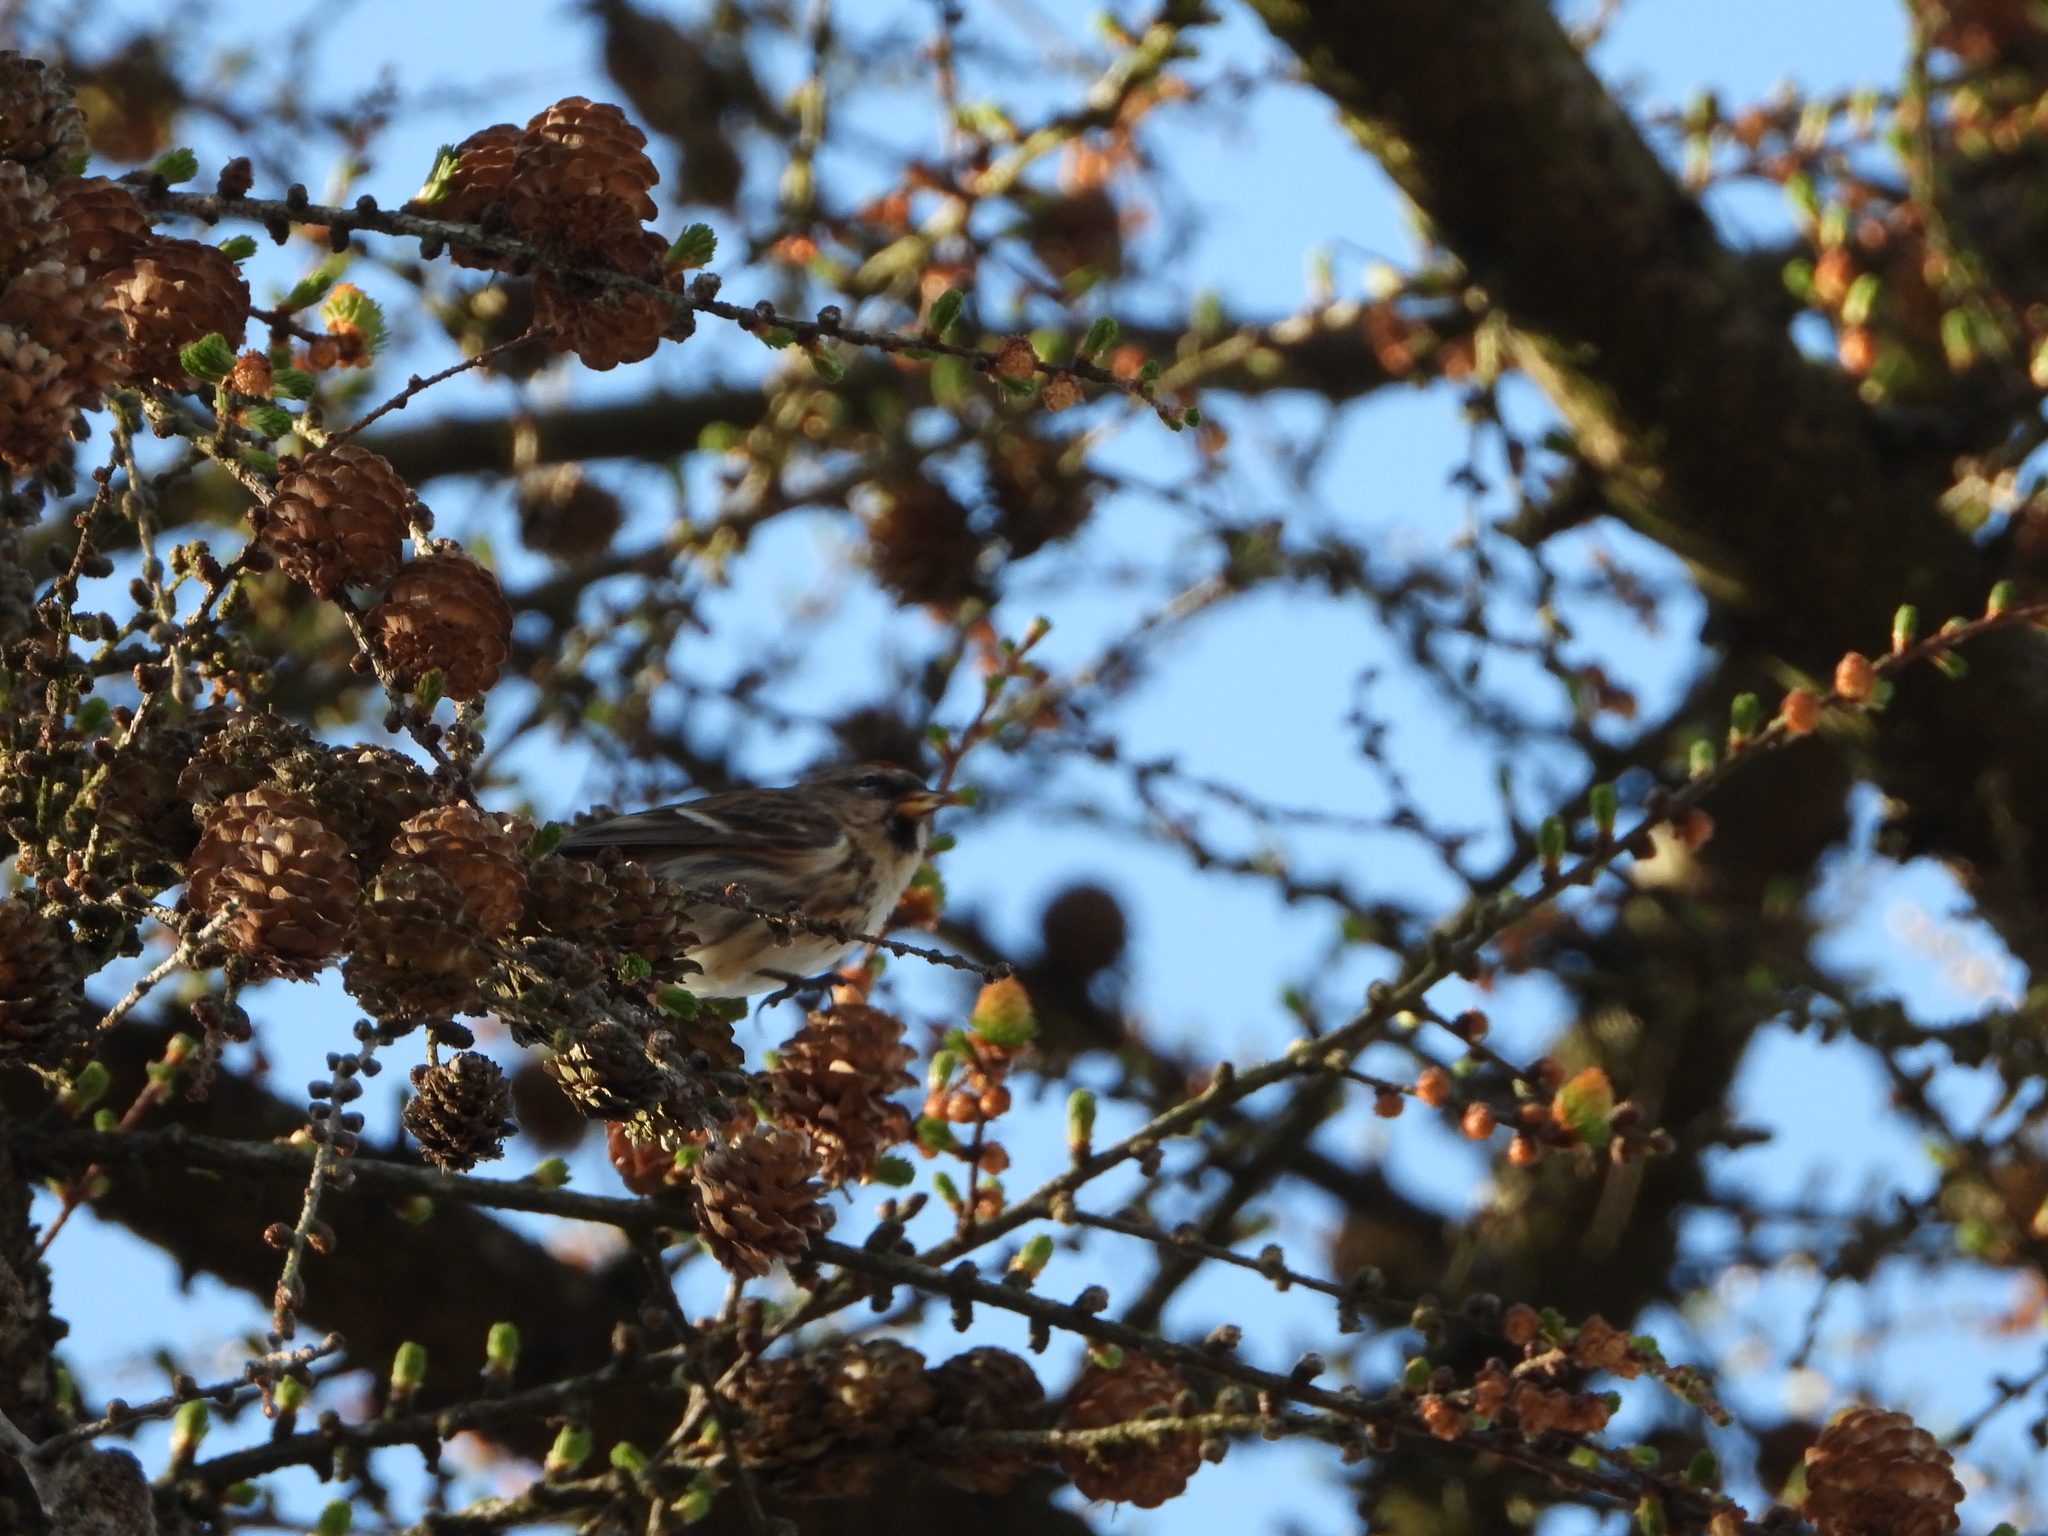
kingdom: Animalia
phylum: Chordata
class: Aves
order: Passeriformes
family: Fringillidae
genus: Acanthis
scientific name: Acanthis flammea
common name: Common redpoll
